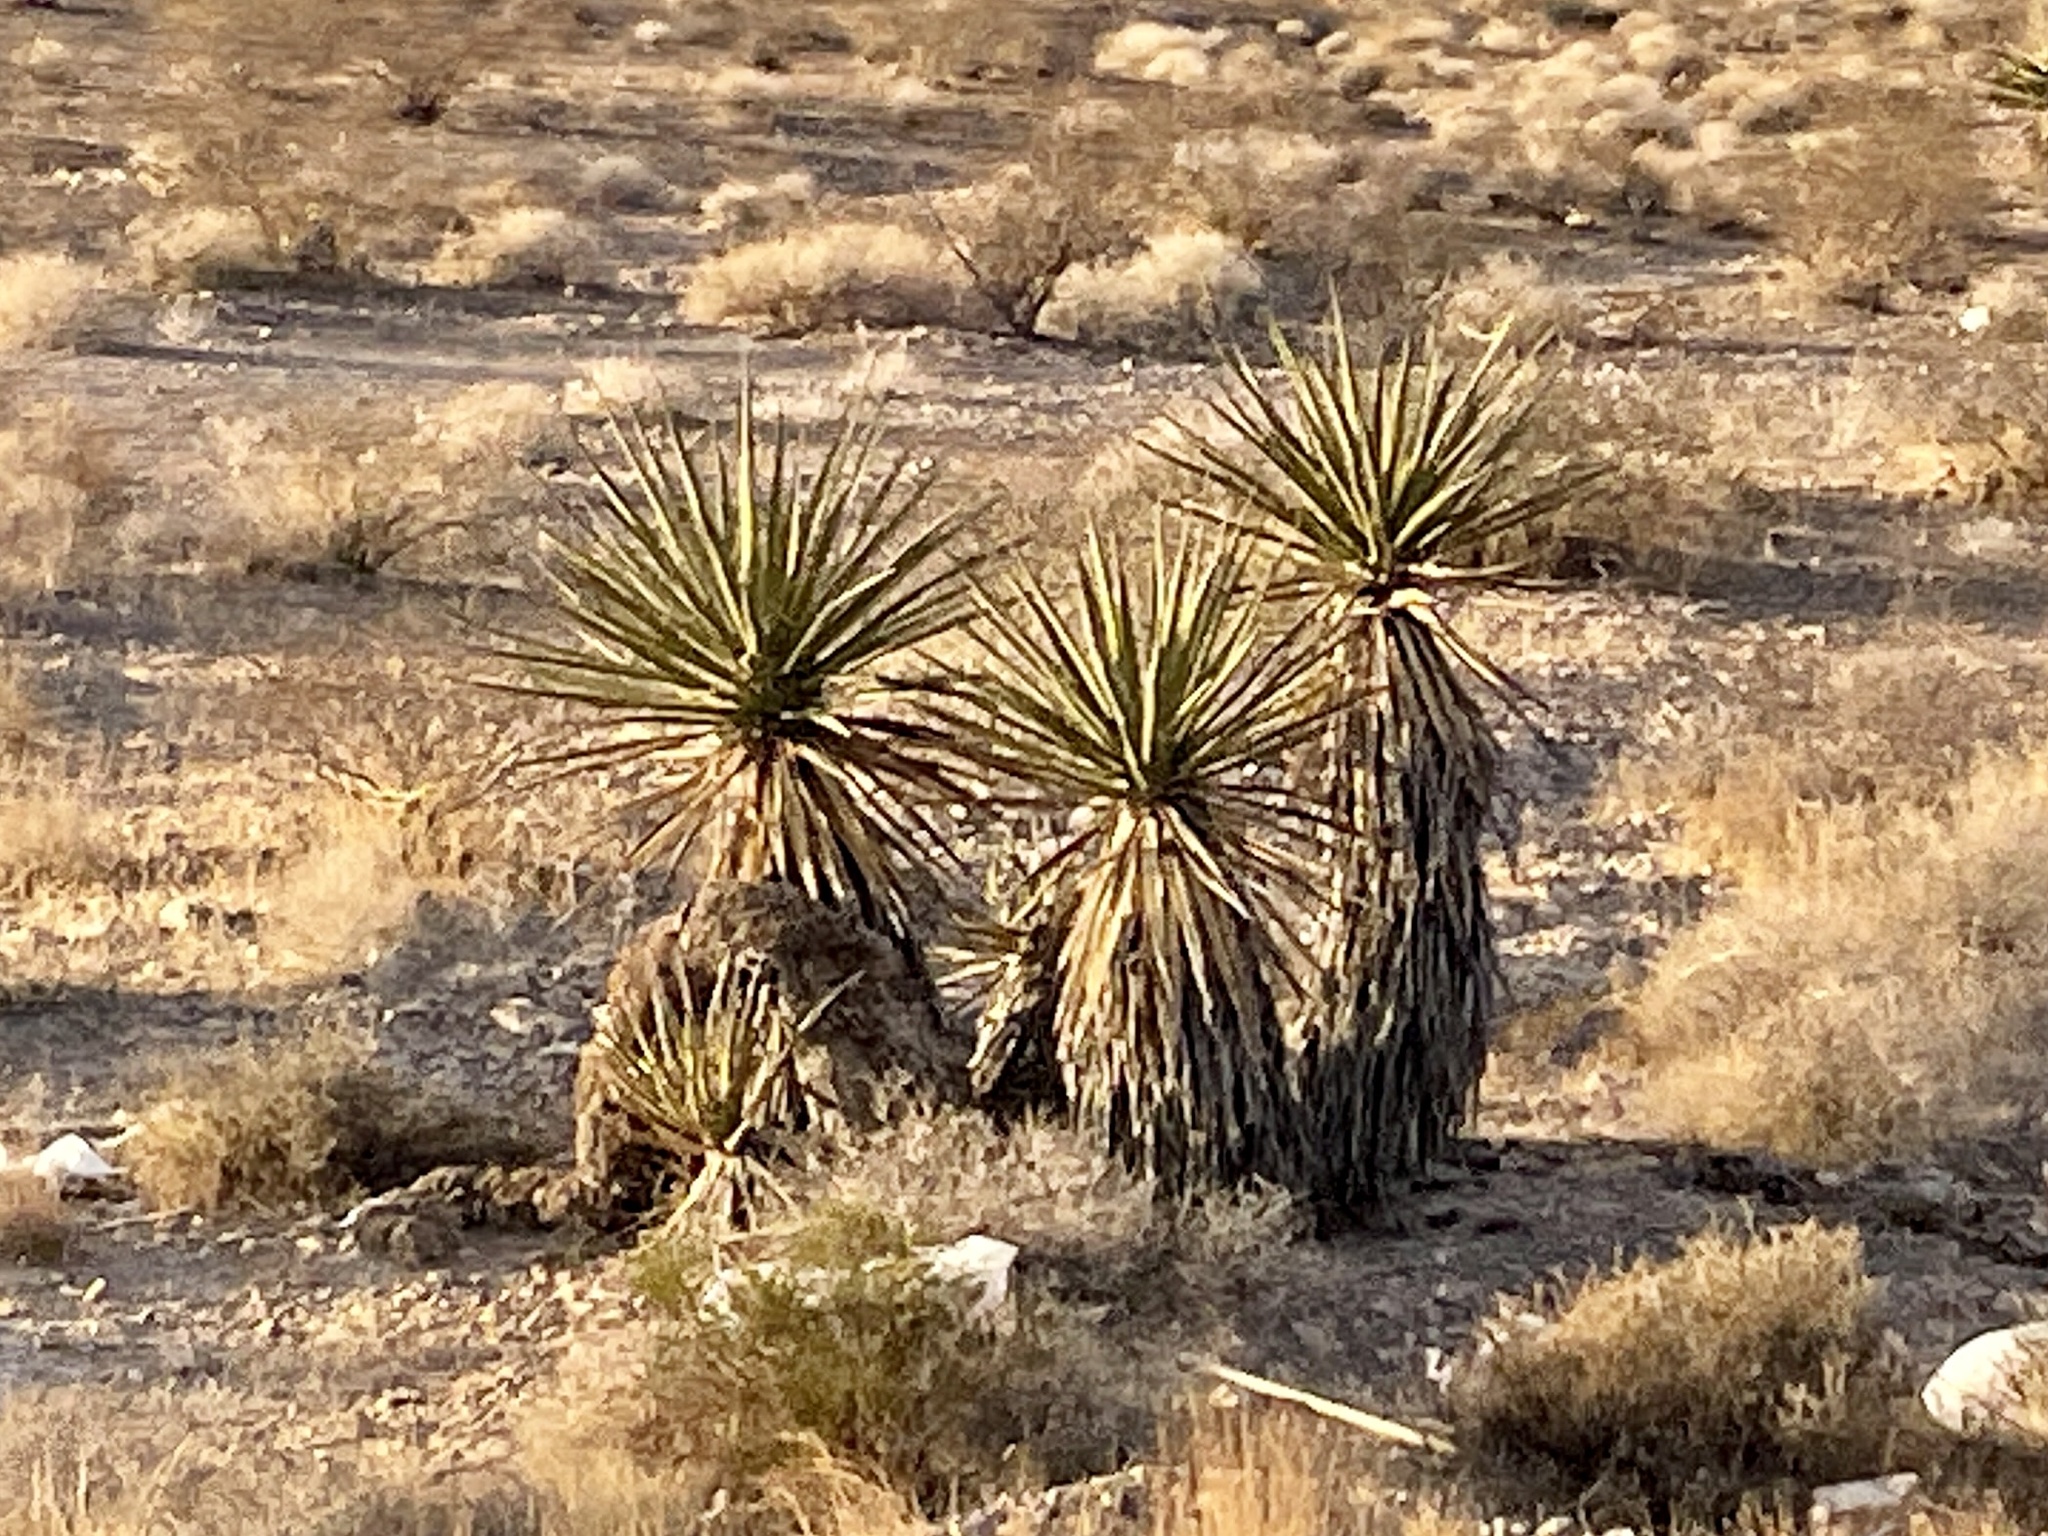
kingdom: Plantae
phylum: Tracheophyta
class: Liliopsida
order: Asparagales
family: Asparagaceae
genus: Yucca
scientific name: Yucca schidigera
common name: Mojave yucca
